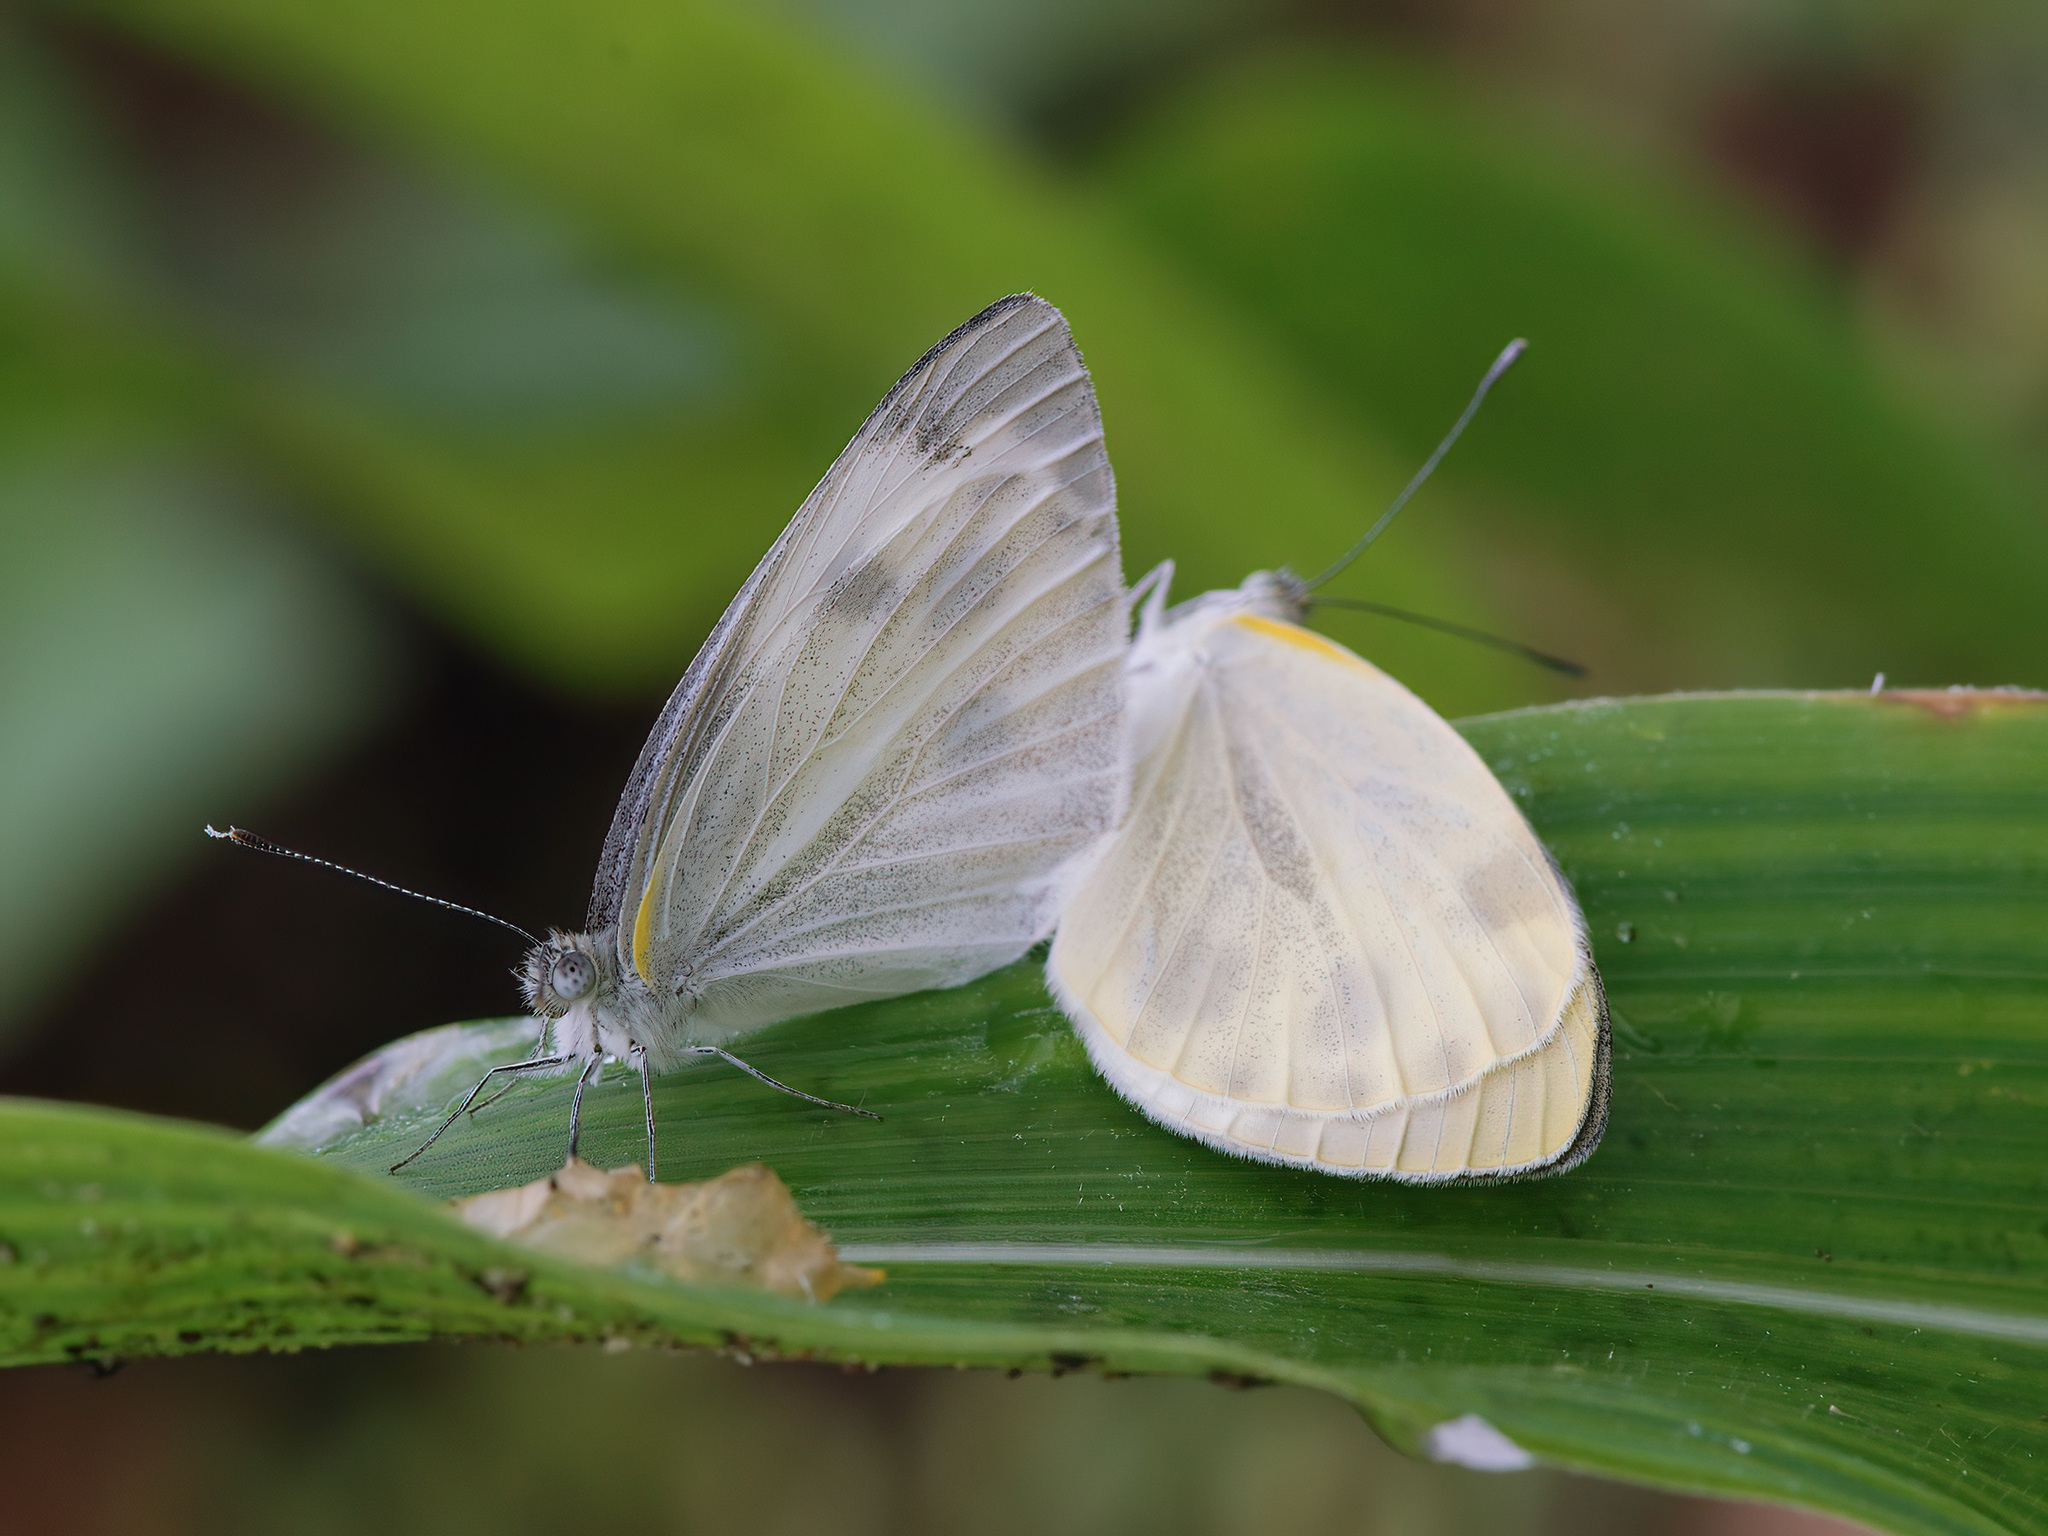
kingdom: Animalia
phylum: Arthropoda
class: Insecta
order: Lepidoptera
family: Pieridae
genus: Pieris
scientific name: Pieris canidia
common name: Indian cabbage white
